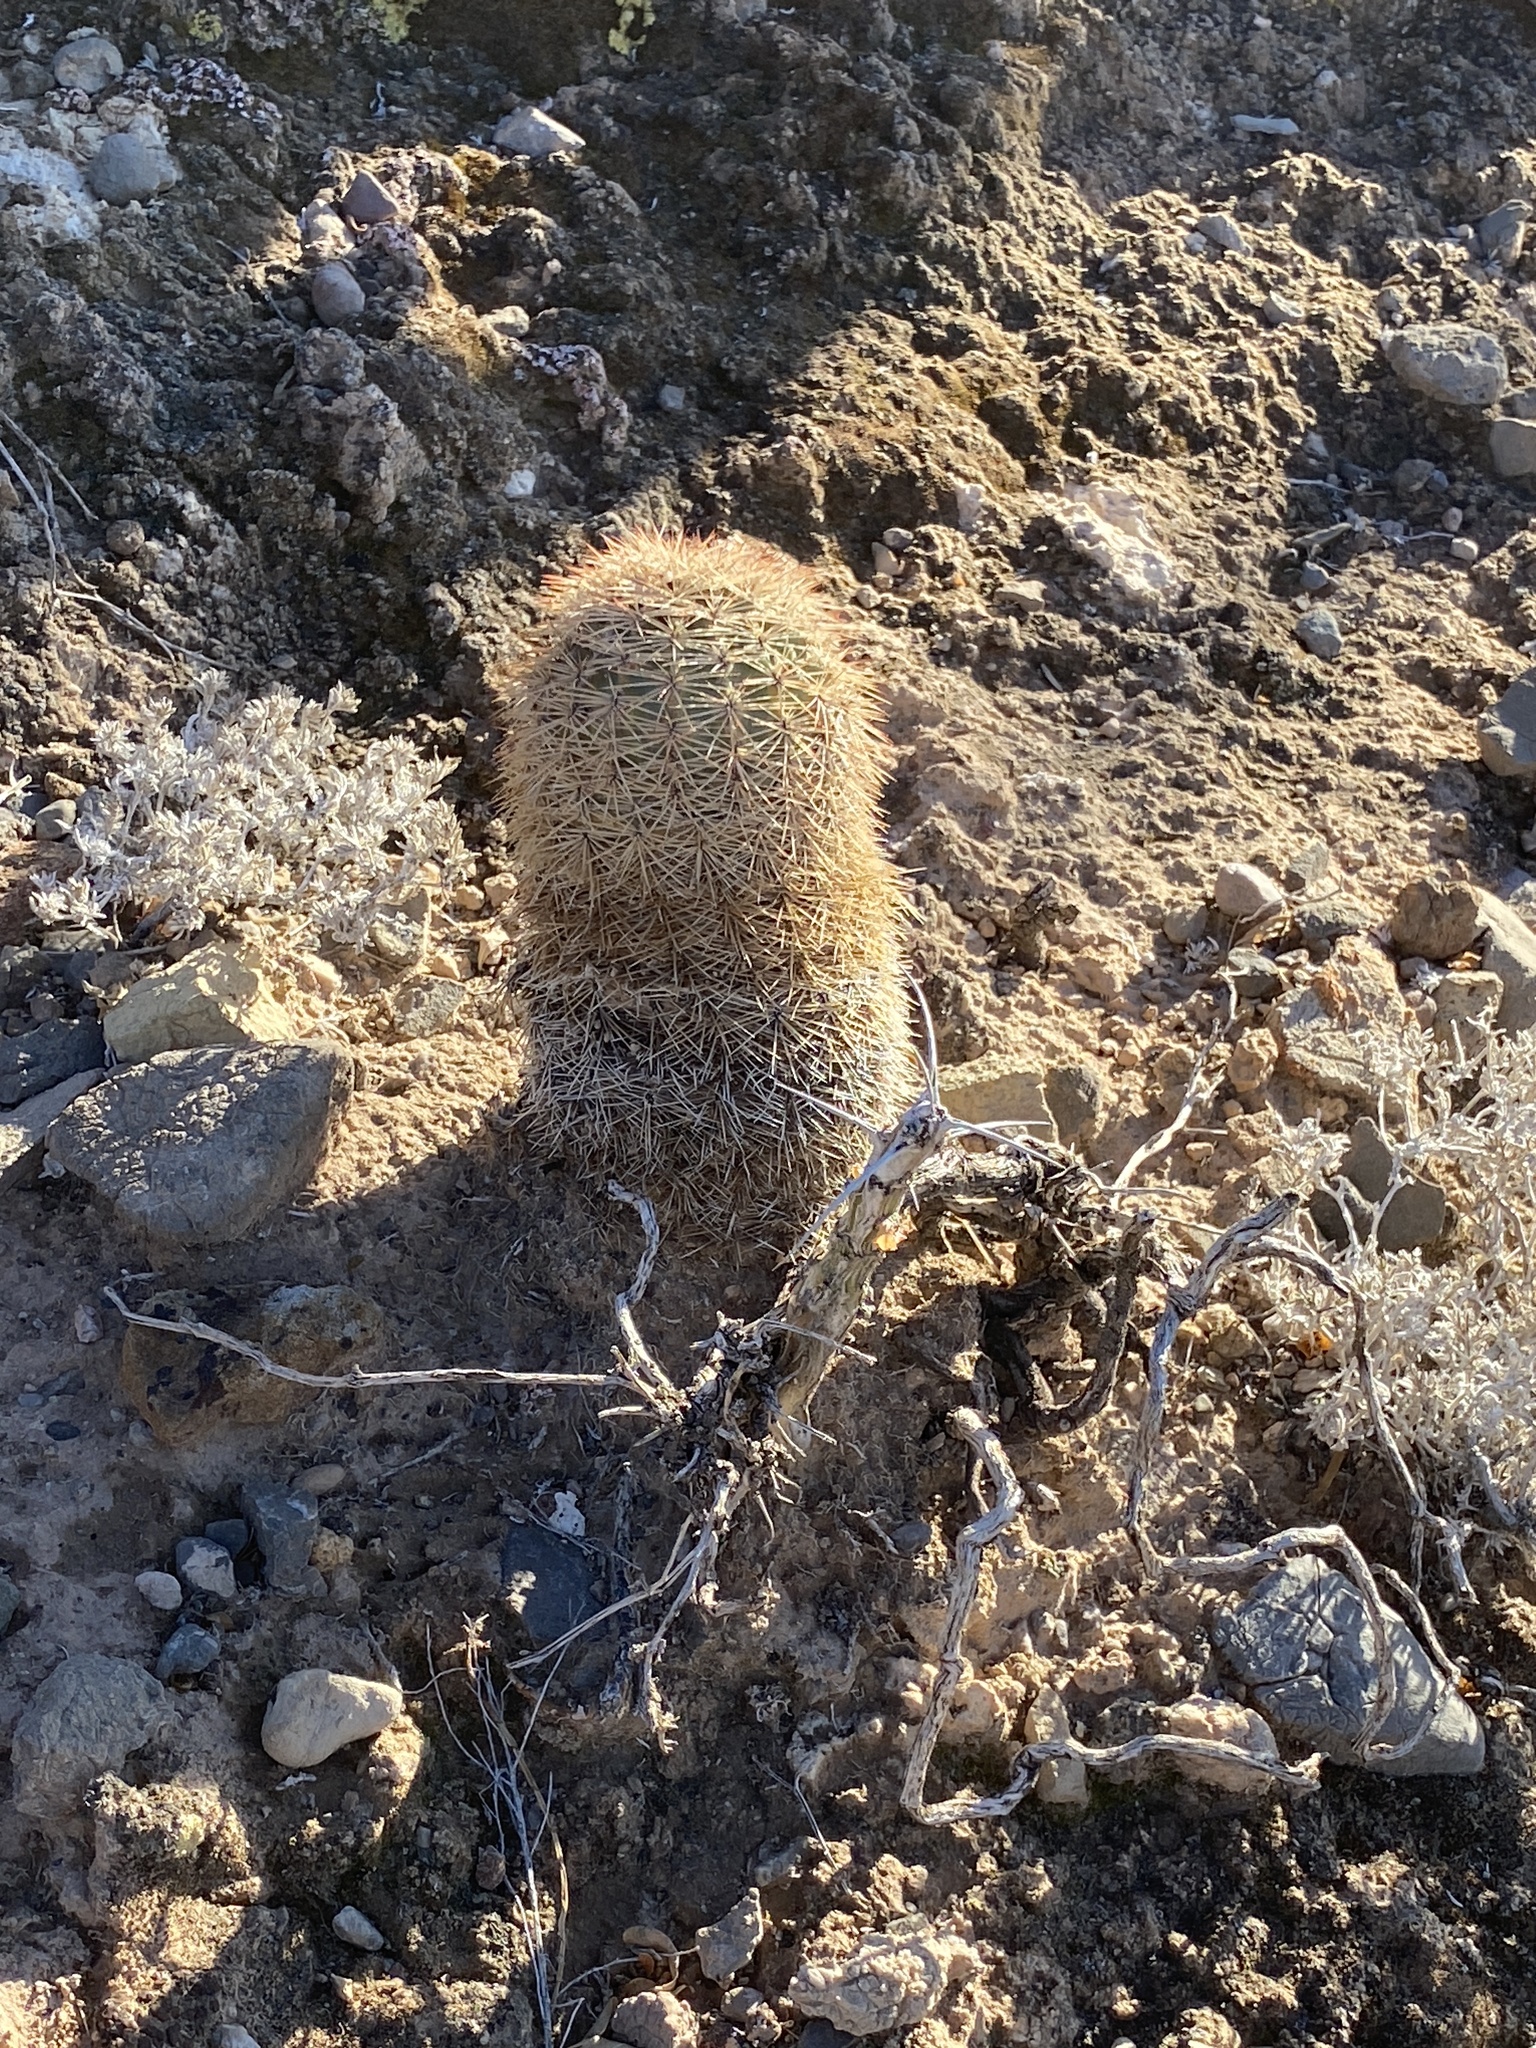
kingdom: Plantae
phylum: Tracheophyta
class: Magnoliopsida
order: Caryophyllales
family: Cactaceae
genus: Echinocereus
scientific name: Echinocereus dasyacanthus
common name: Spiny hedgehog cactus
